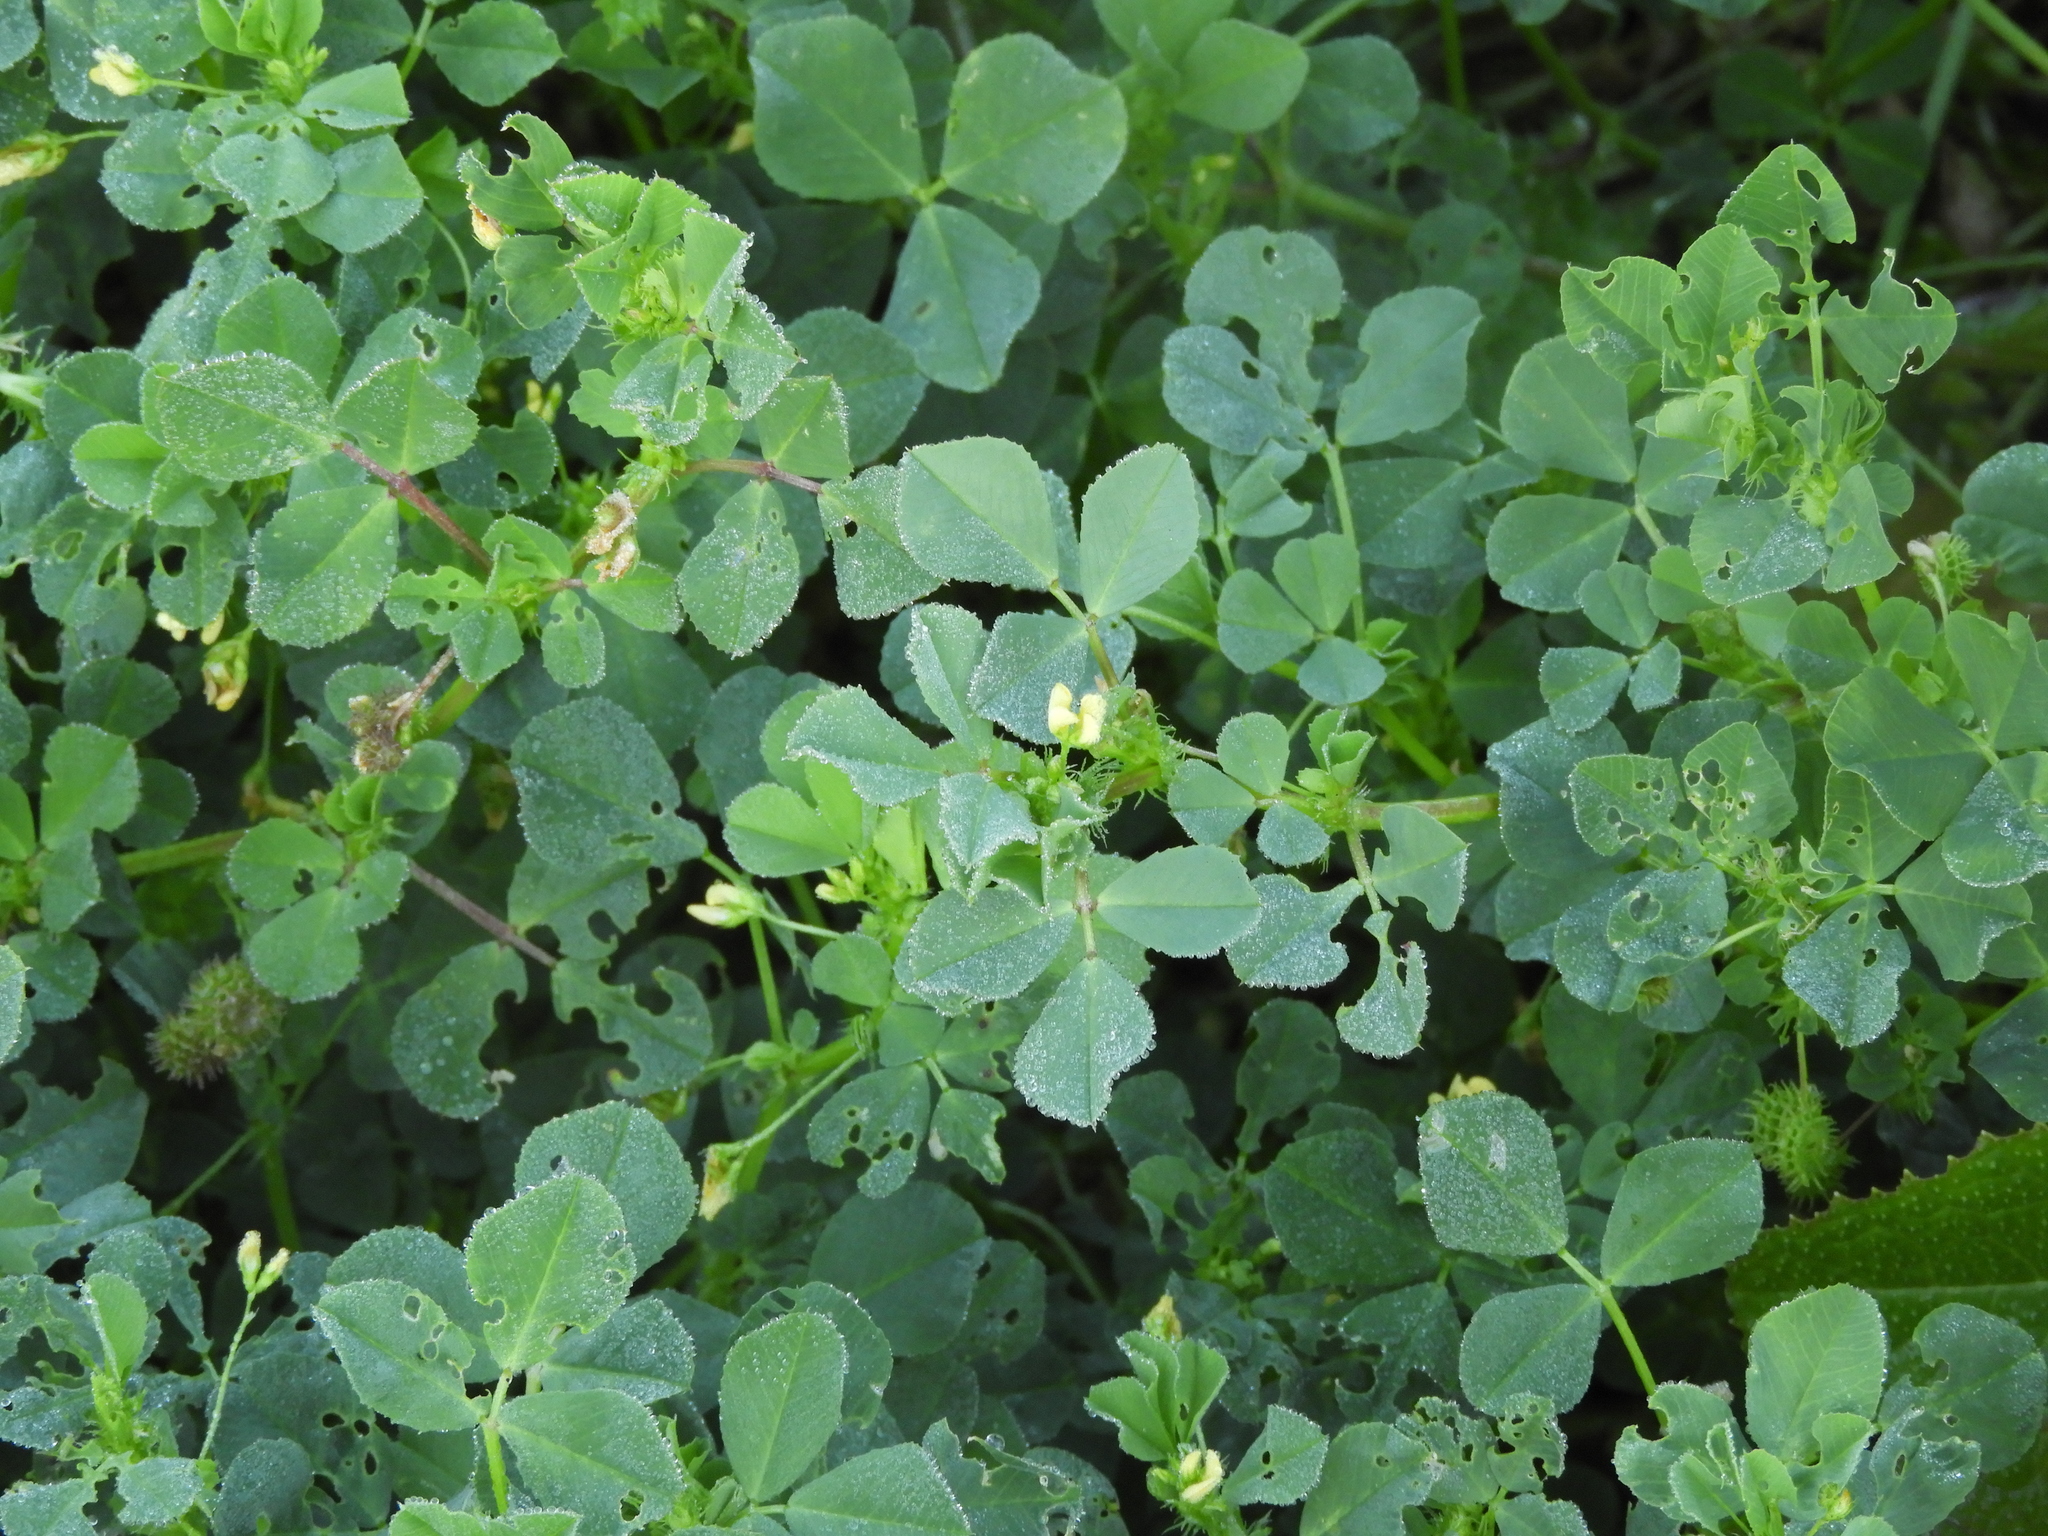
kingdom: Plantae
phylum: Tracheophyta
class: Magnoliopsida
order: Fabales
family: Fabaceae
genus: Medicago
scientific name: Medicago polymorpha
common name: Burclover
